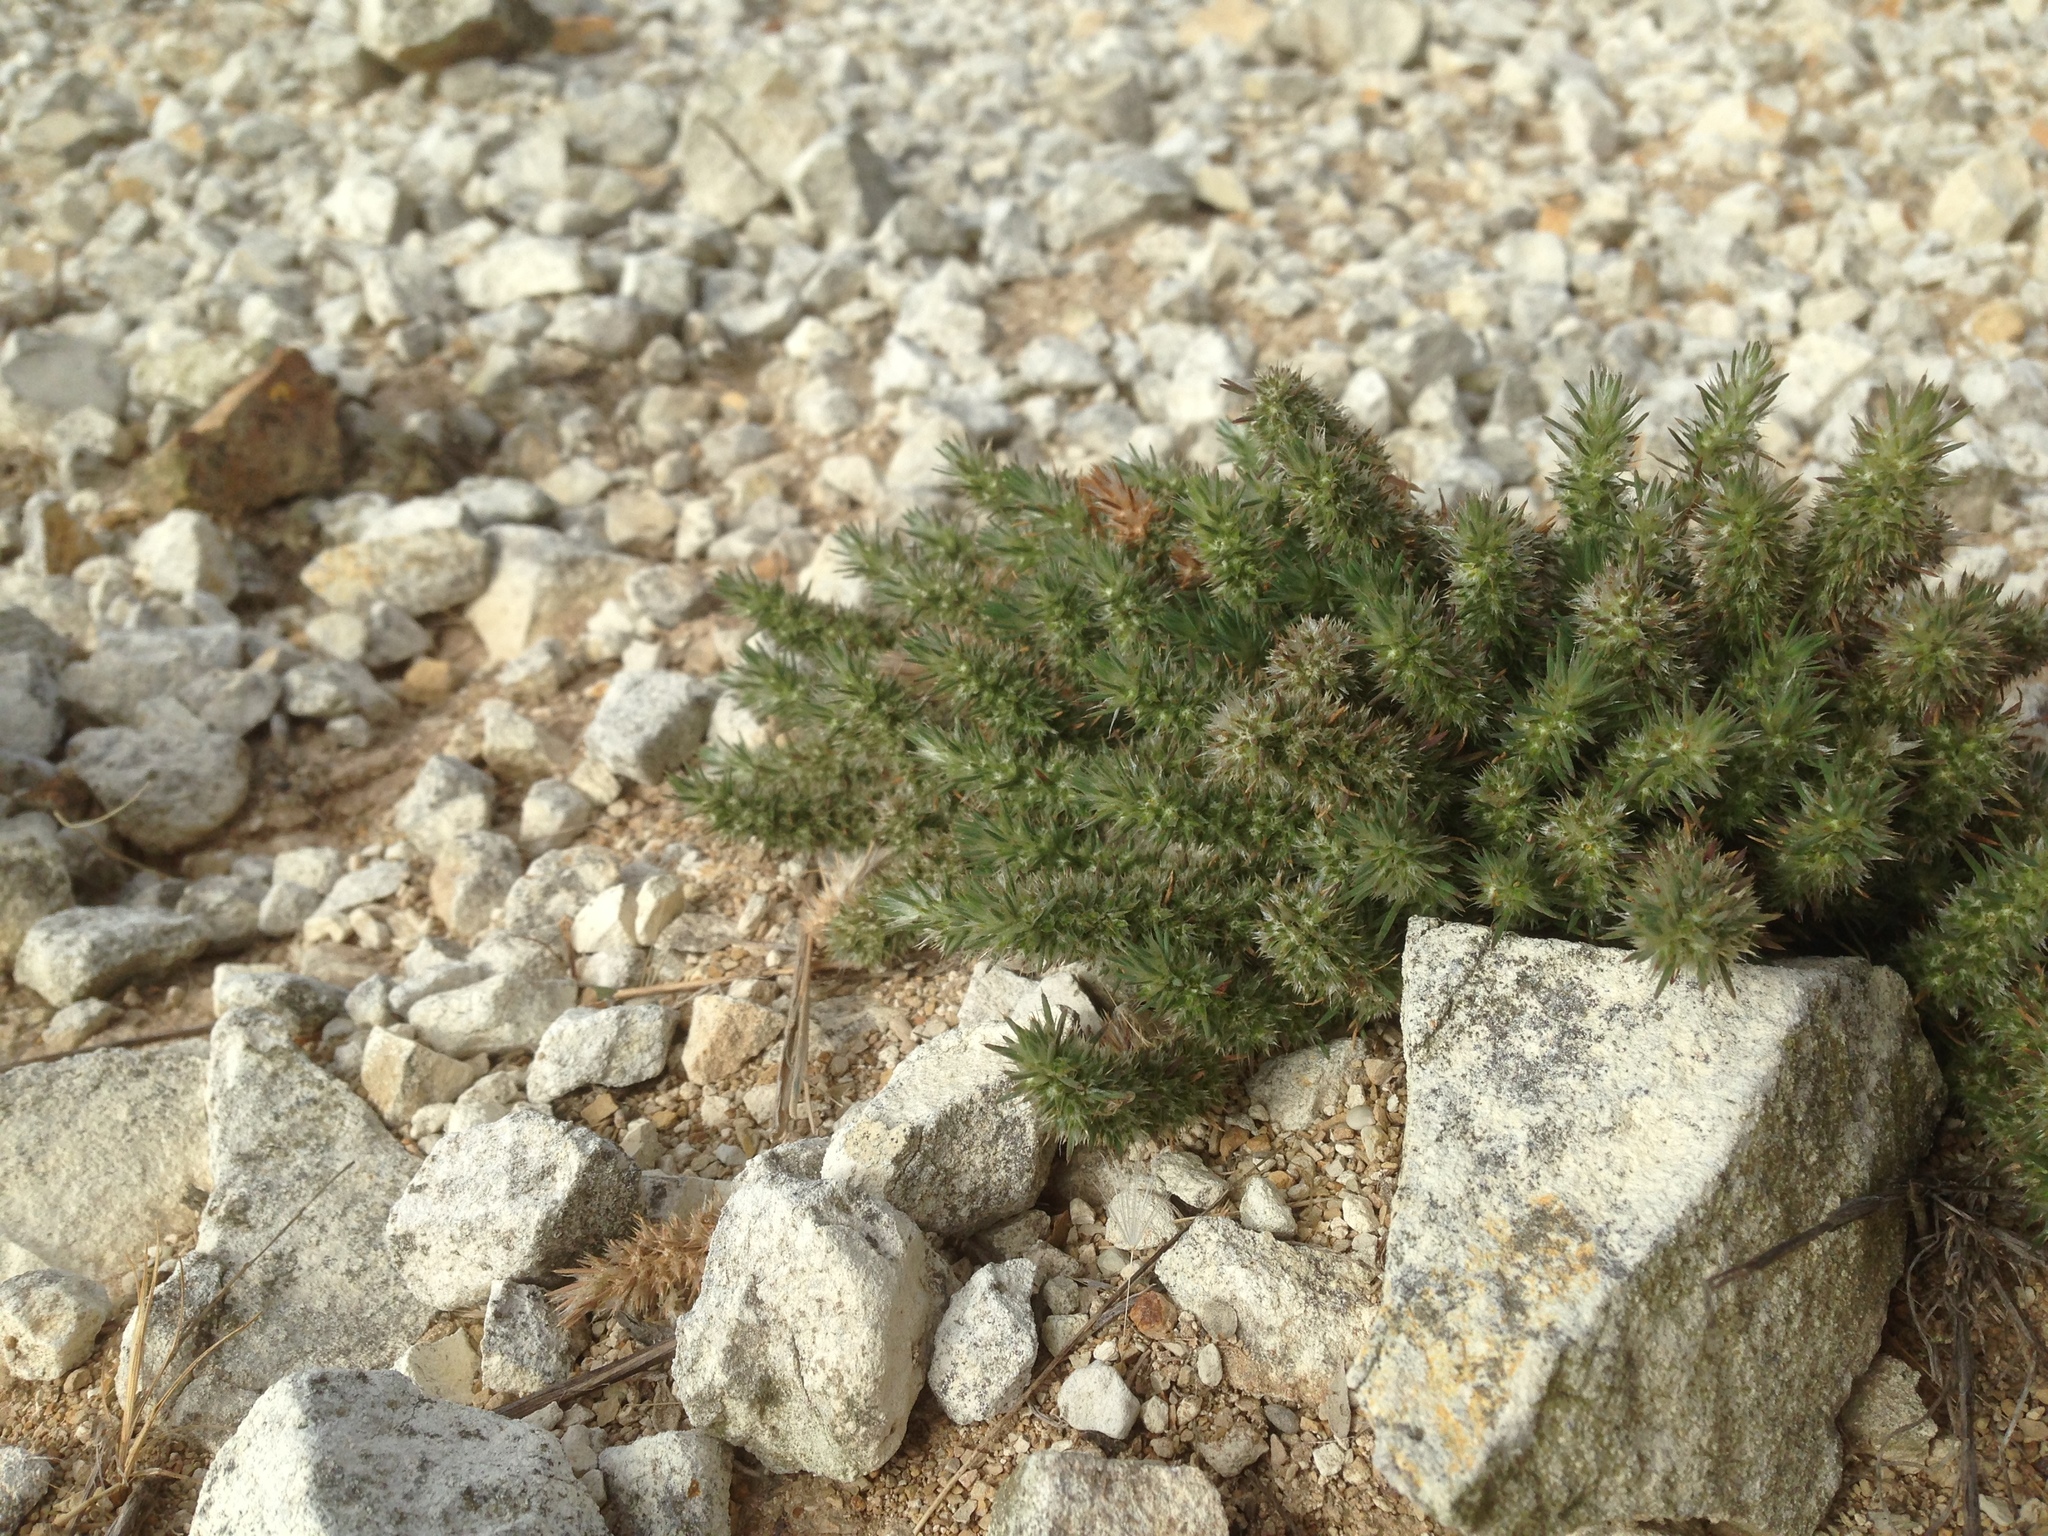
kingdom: Plantae
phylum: Tracheophyta
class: Magnoliopsida
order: Caryophyllales
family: Caryophyllaceae
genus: Cardionema
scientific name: Cardionema ramosissima
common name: Sandcarpet
